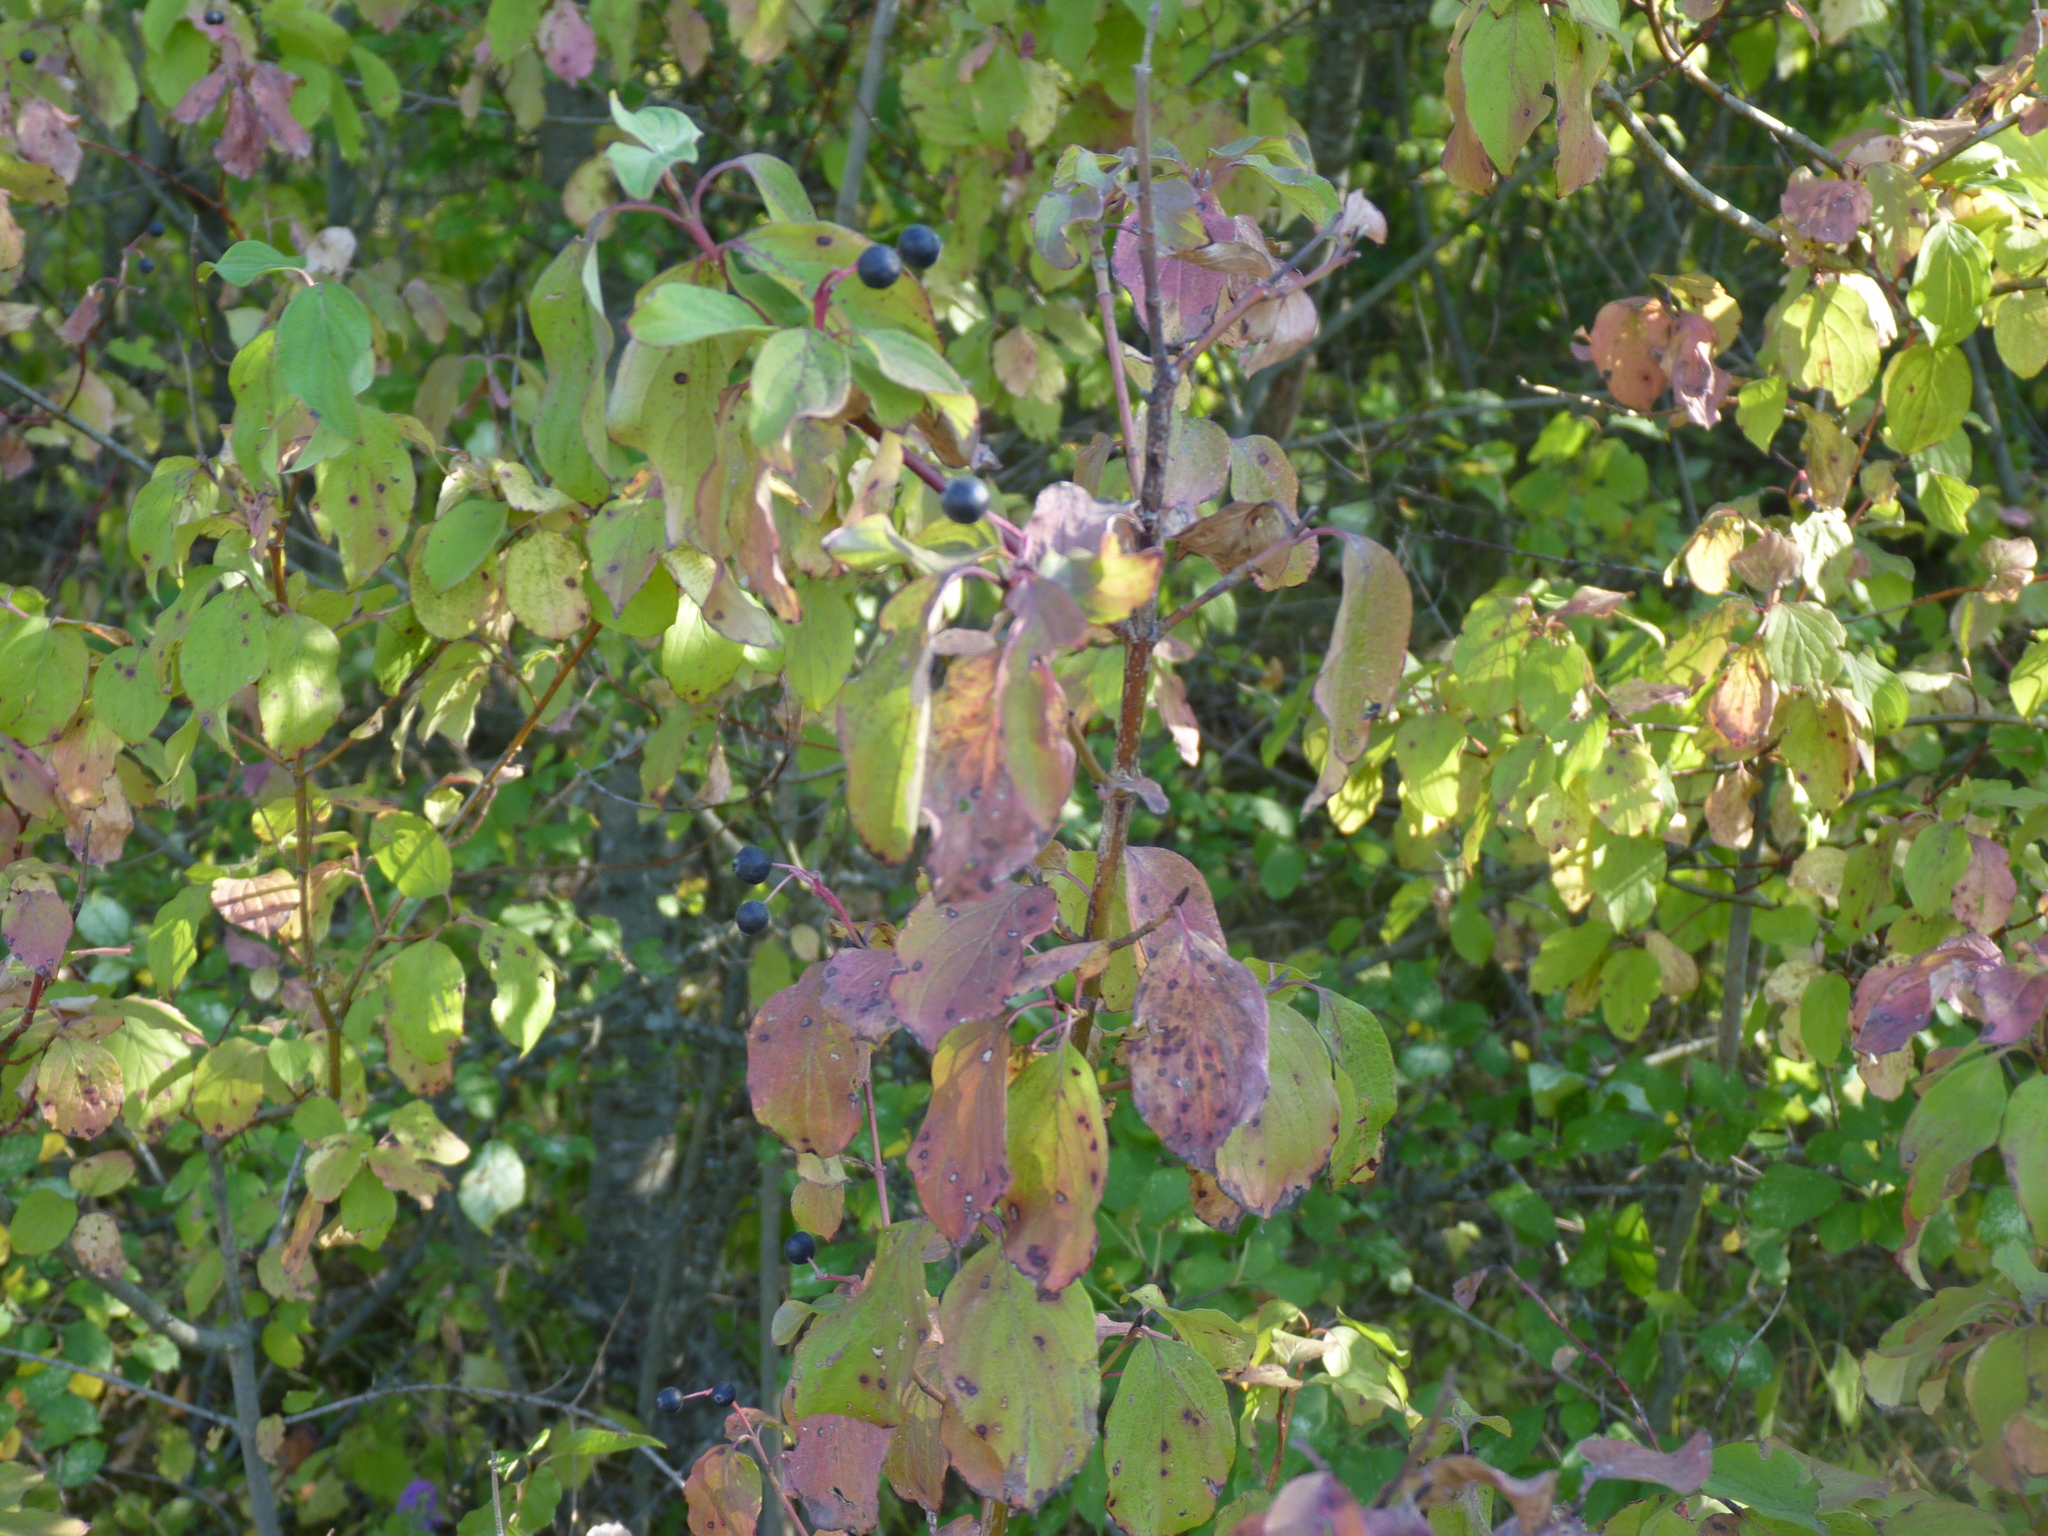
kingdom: Plantae
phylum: Tracheophyta
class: Magnoliopsida
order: Cornales
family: Cornaceae
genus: Cornus
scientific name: Cornus sanguinea
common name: Dogwood
